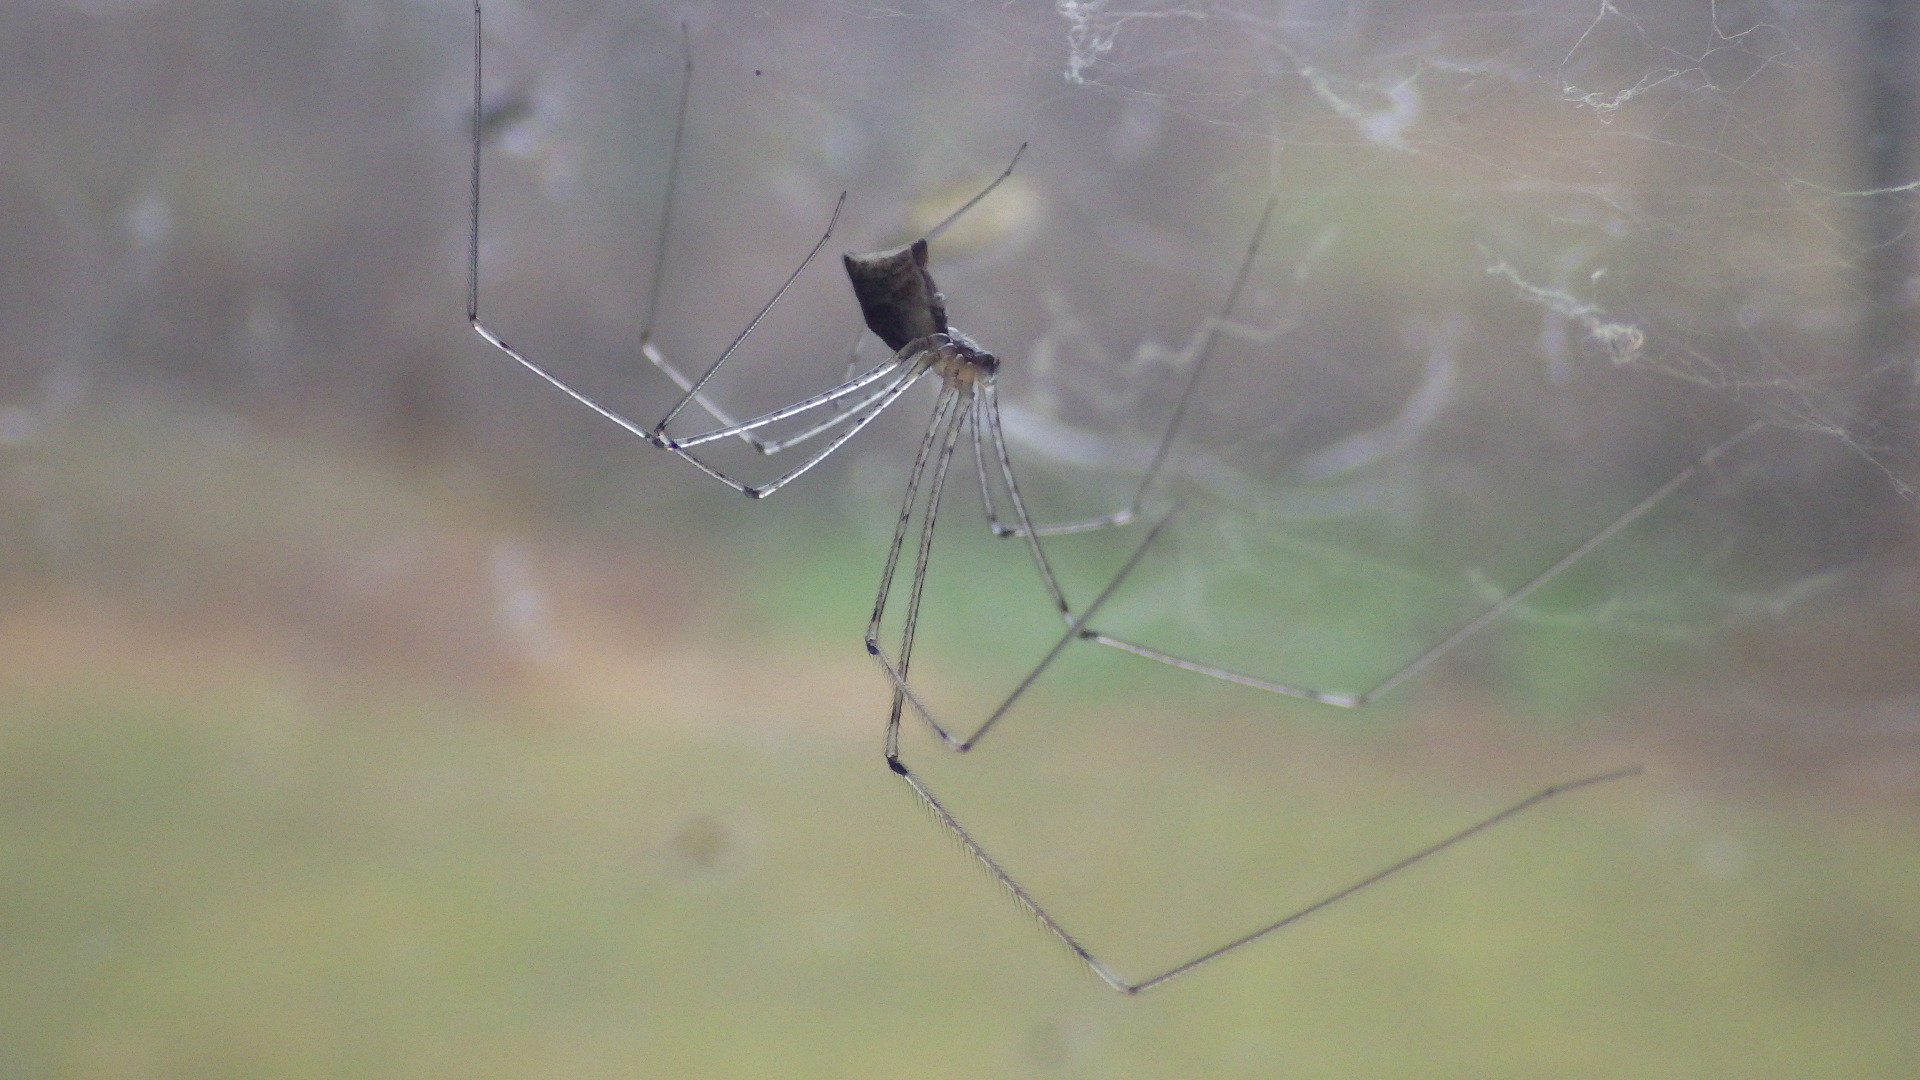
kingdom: Animalia
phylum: Arthropoda
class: Arachnida
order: Araneae
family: Pholcidae
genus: Crossopriza
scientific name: Crossopriza lyoni
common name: Cellar spiders
